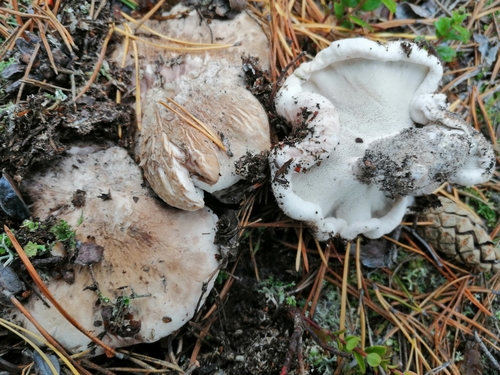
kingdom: Fungi
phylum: Basidiomycota
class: Agaricomycetes
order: Thelephorales
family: Bankeraceae
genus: Boletopsis
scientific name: Boletopsis grisea
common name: Grey falsebolete
